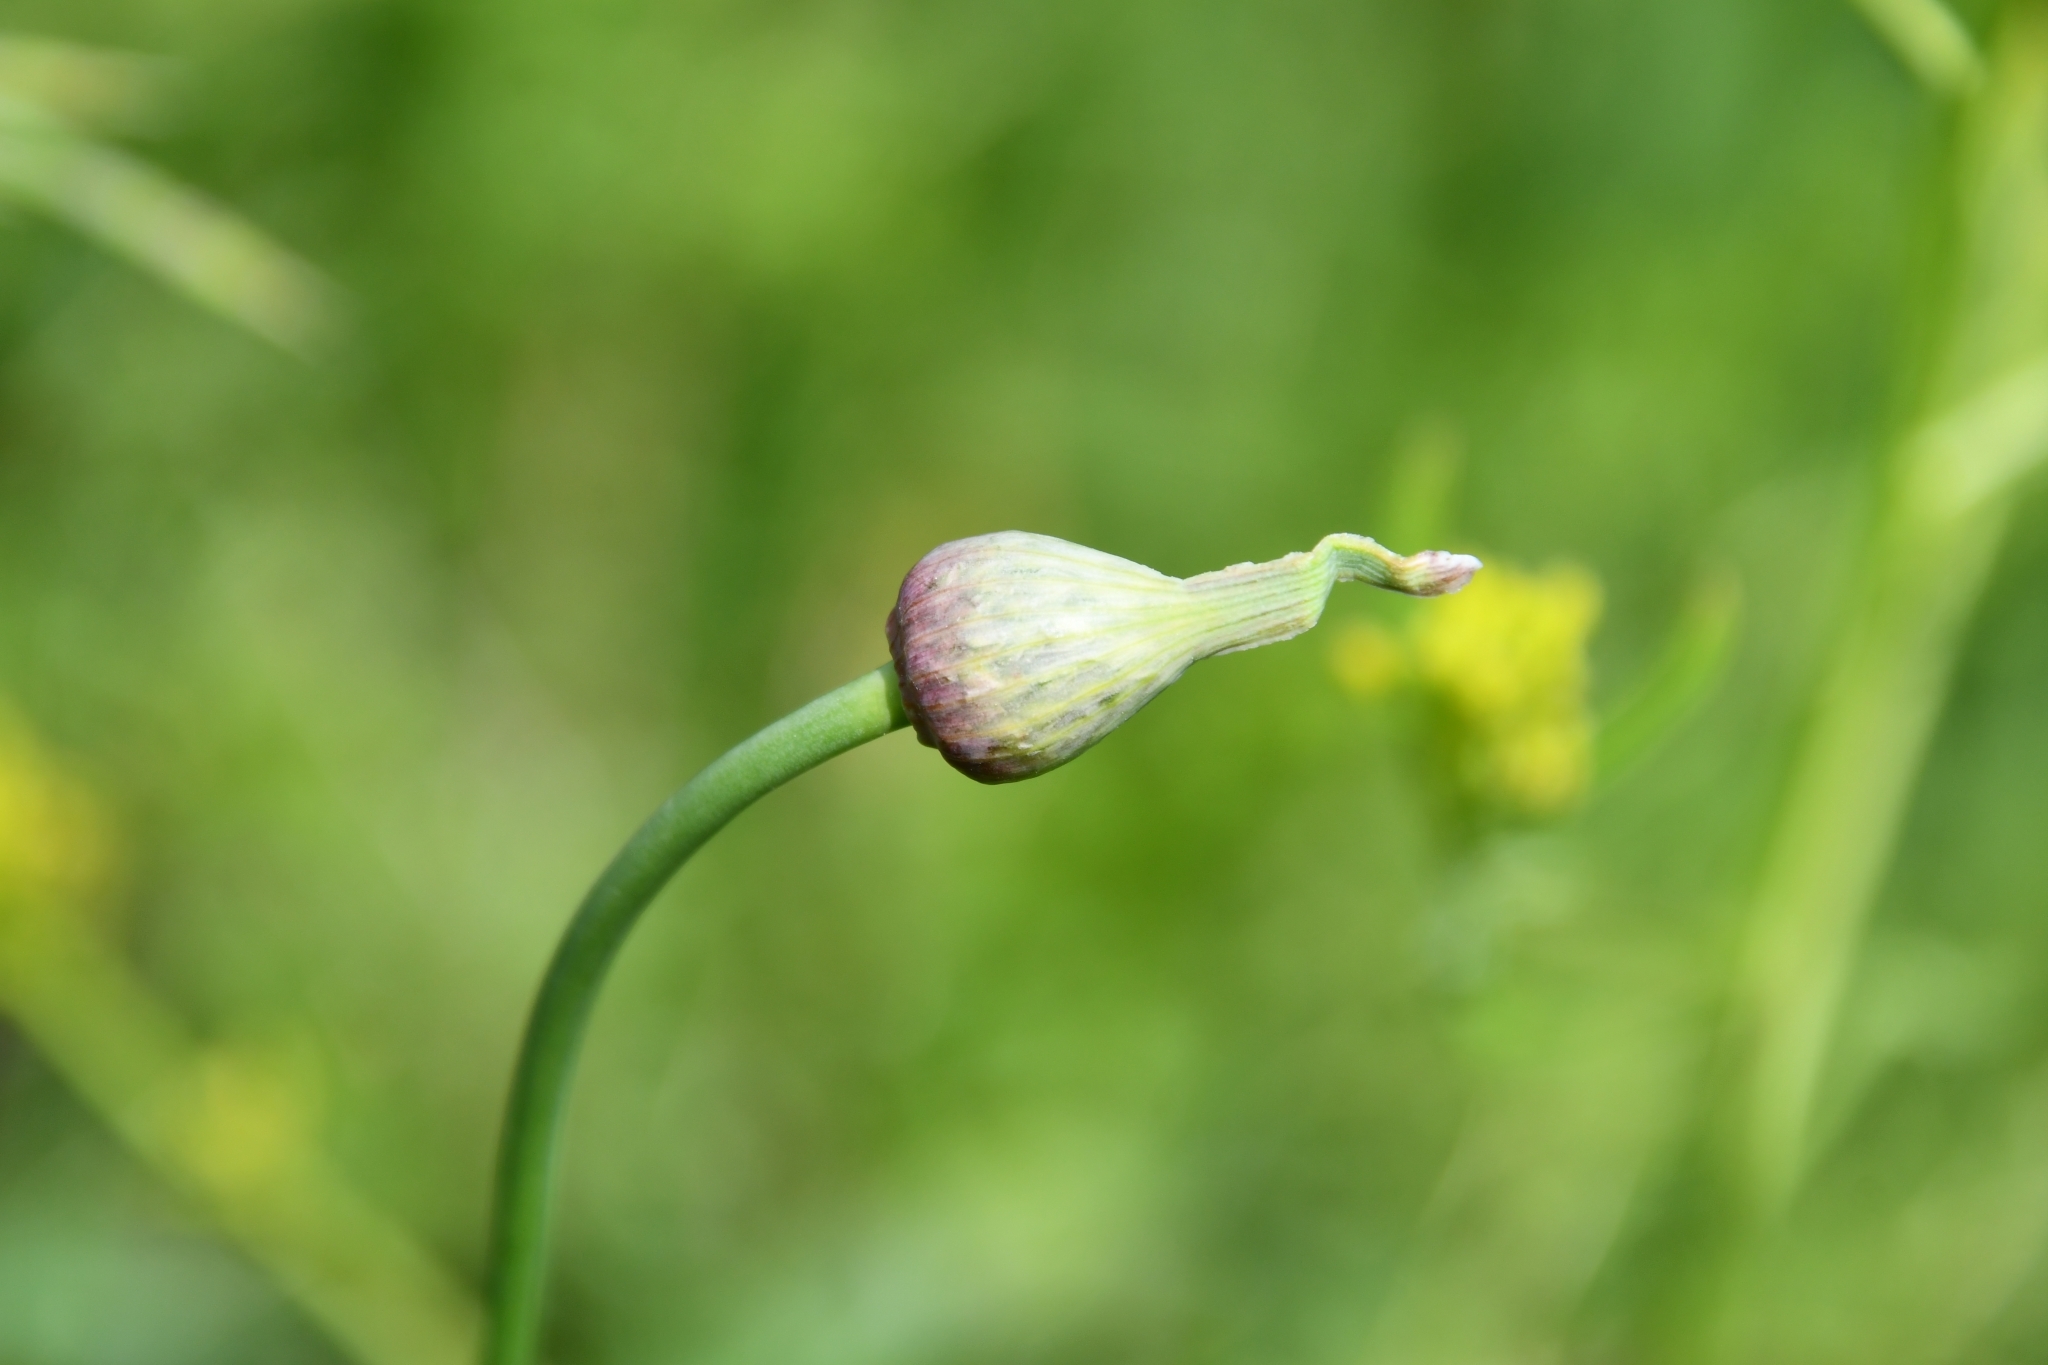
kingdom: Plantae
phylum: Tracheophyta
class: Liliopsida
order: Asparagales
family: Amaryllidaceae
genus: Allium
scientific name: Allium rotundum
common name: Sand leek
